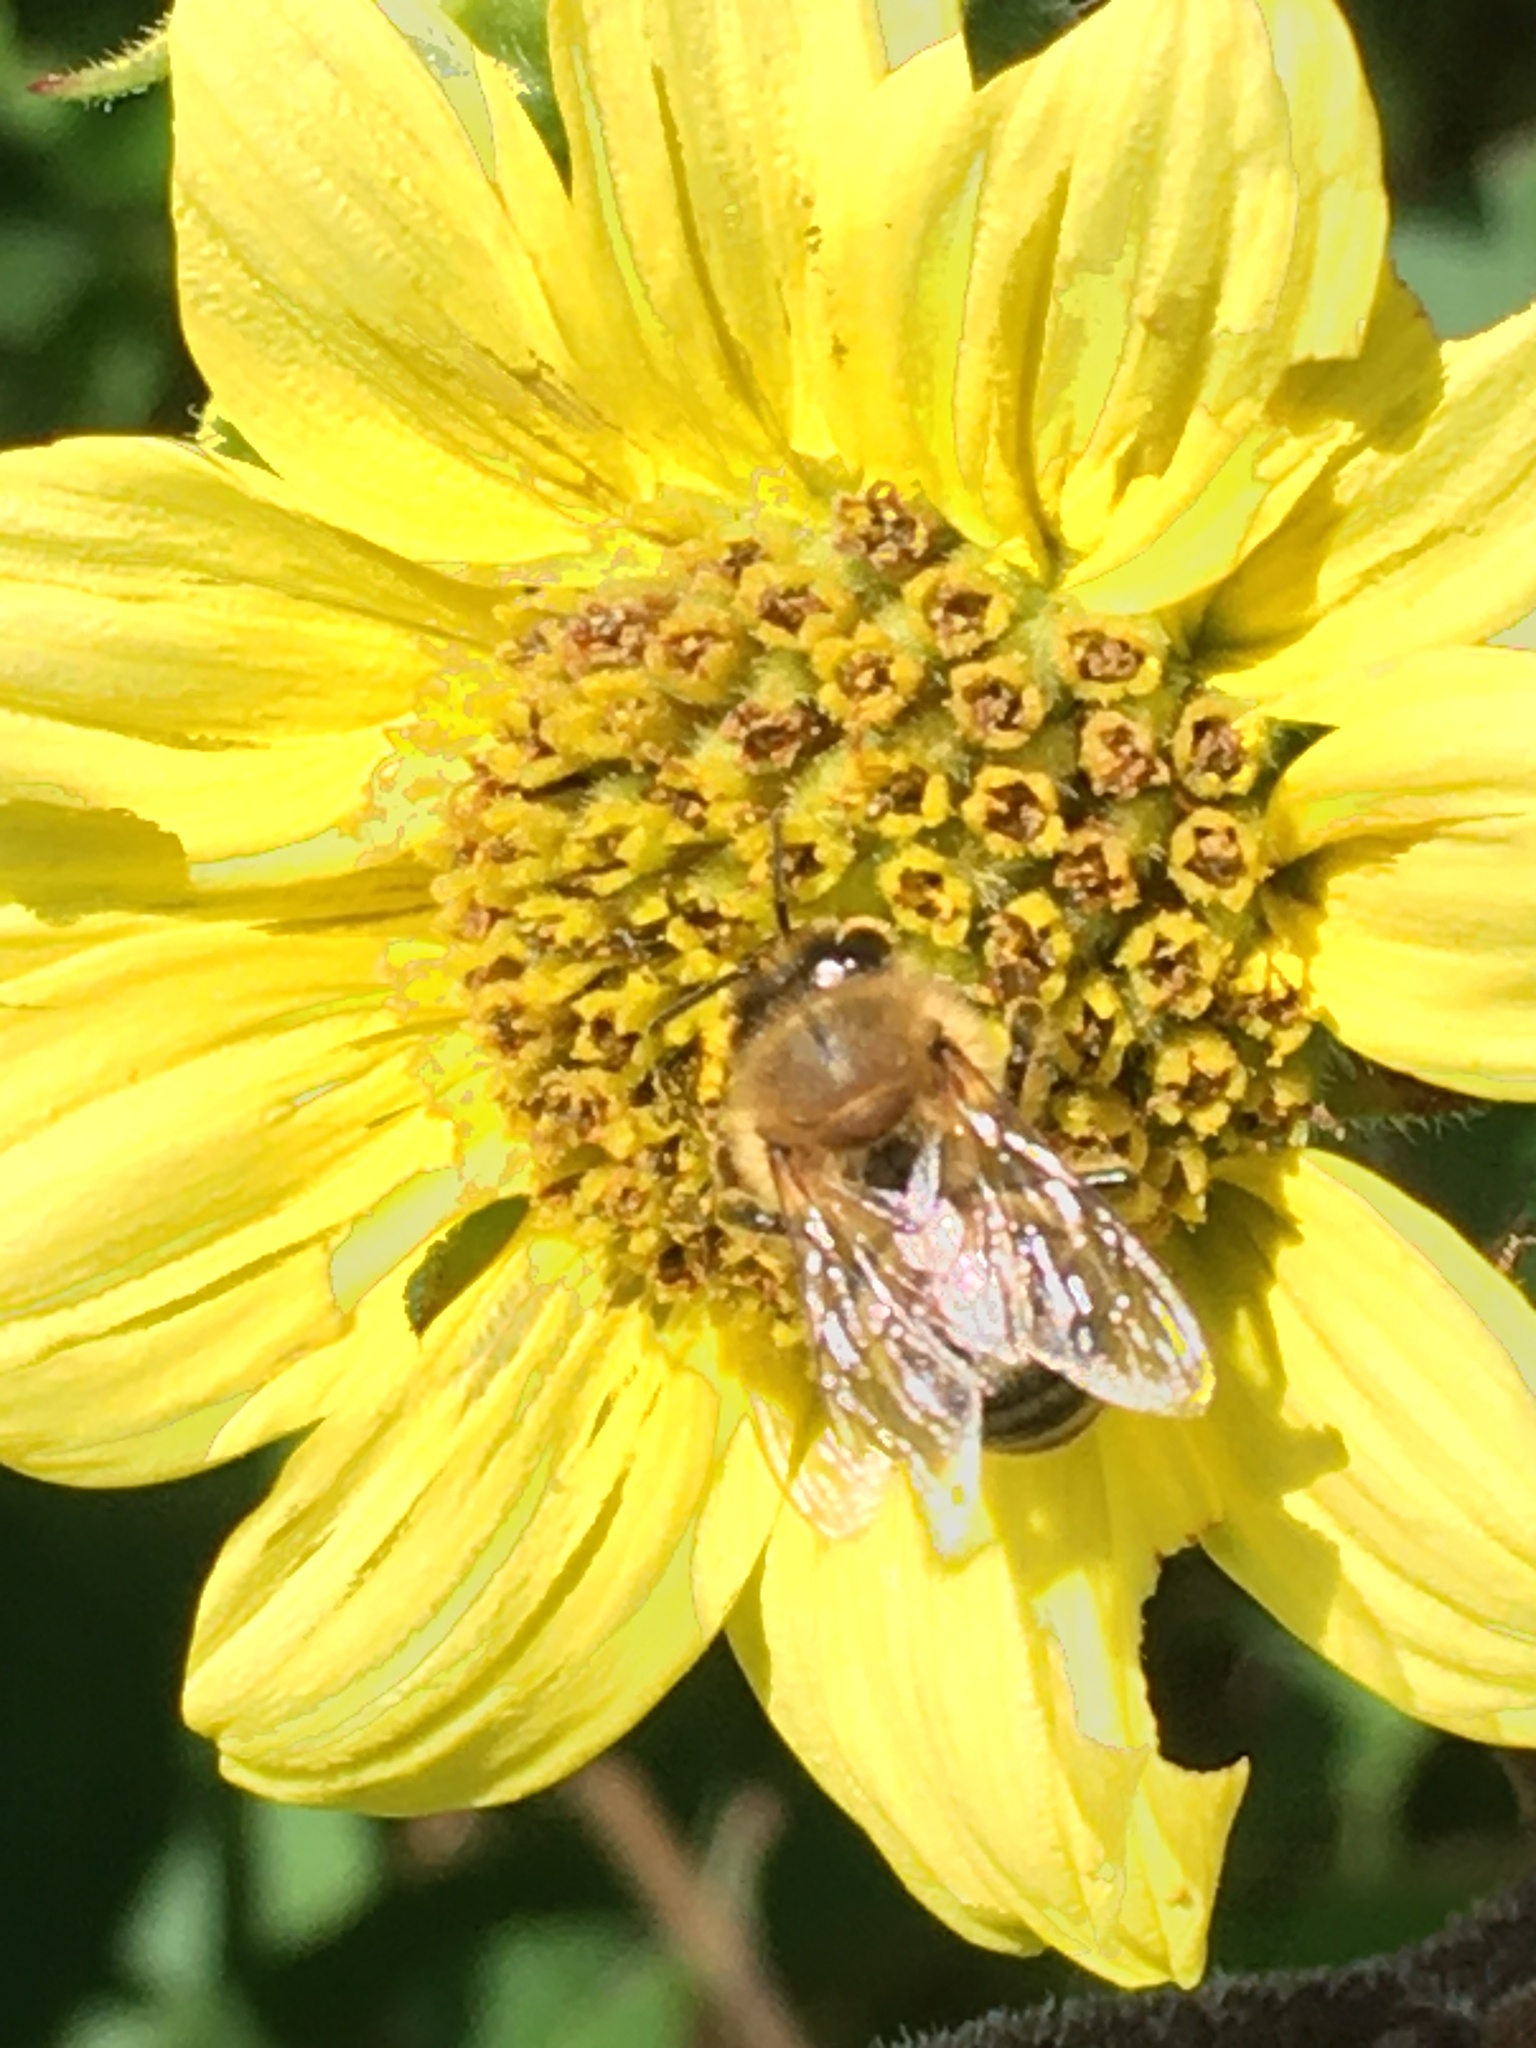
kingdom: Animalia
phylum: Arthropoda
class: Insecta
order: Hymenoptera
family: Apidae
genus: Apis
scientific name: Apis mellifera
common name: Honey bee
